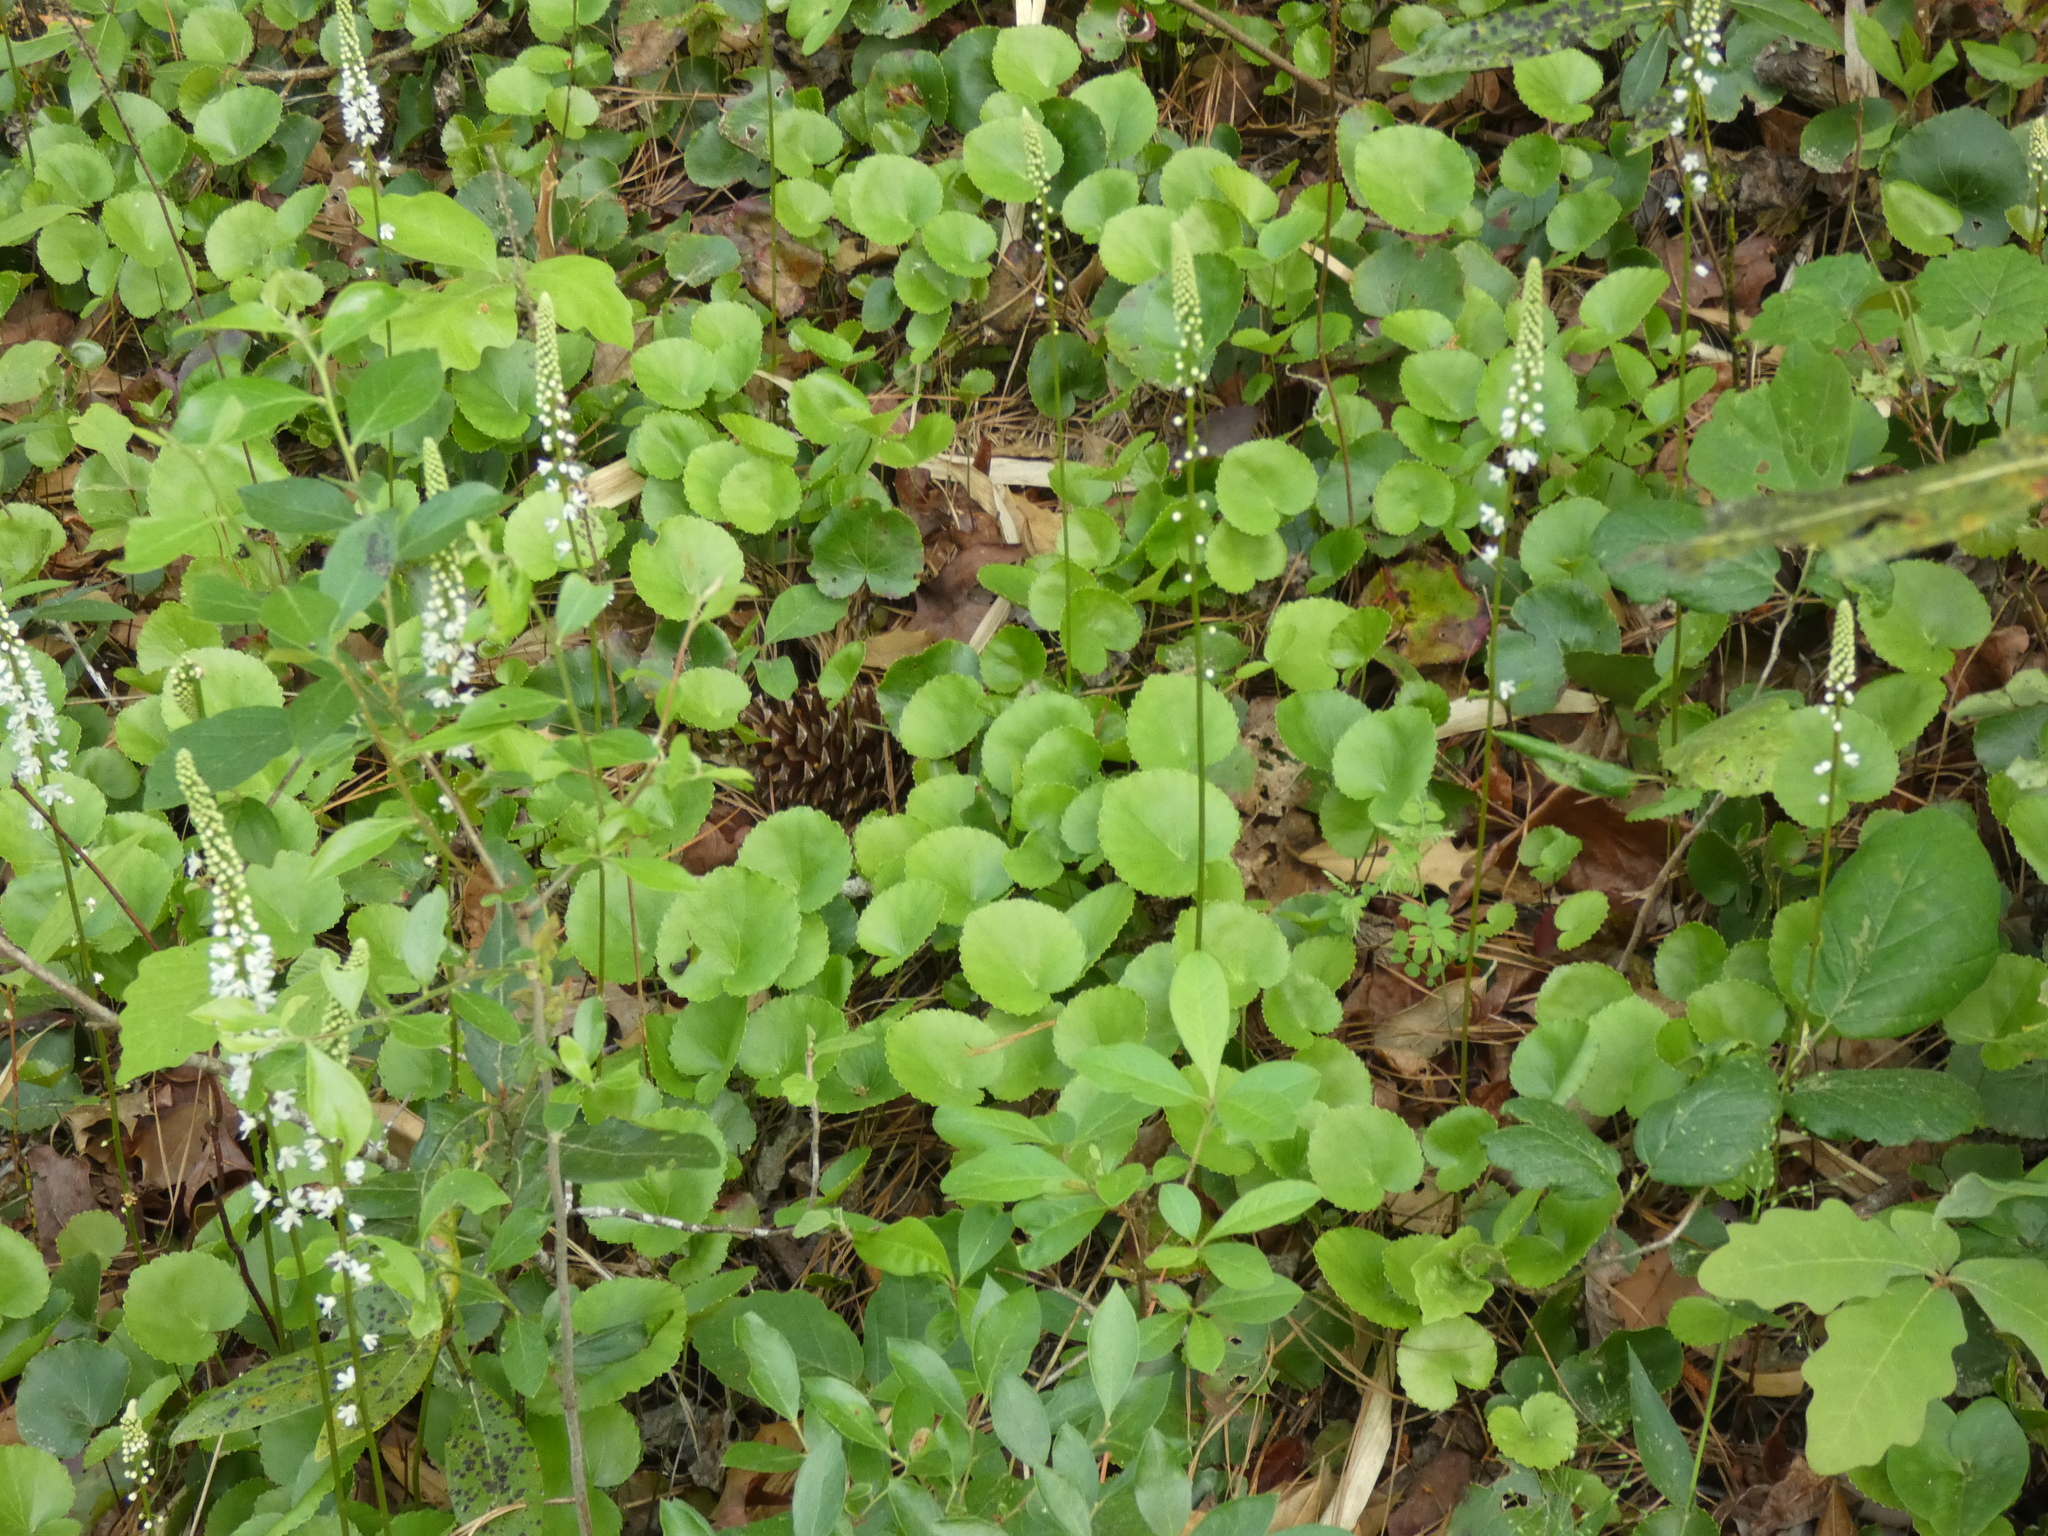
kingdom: Plantae
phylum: Tracheophyta
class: Magnoliopsida
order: Ericales
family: Diapensiaceae
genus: Galax
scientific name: Galax urceolata
